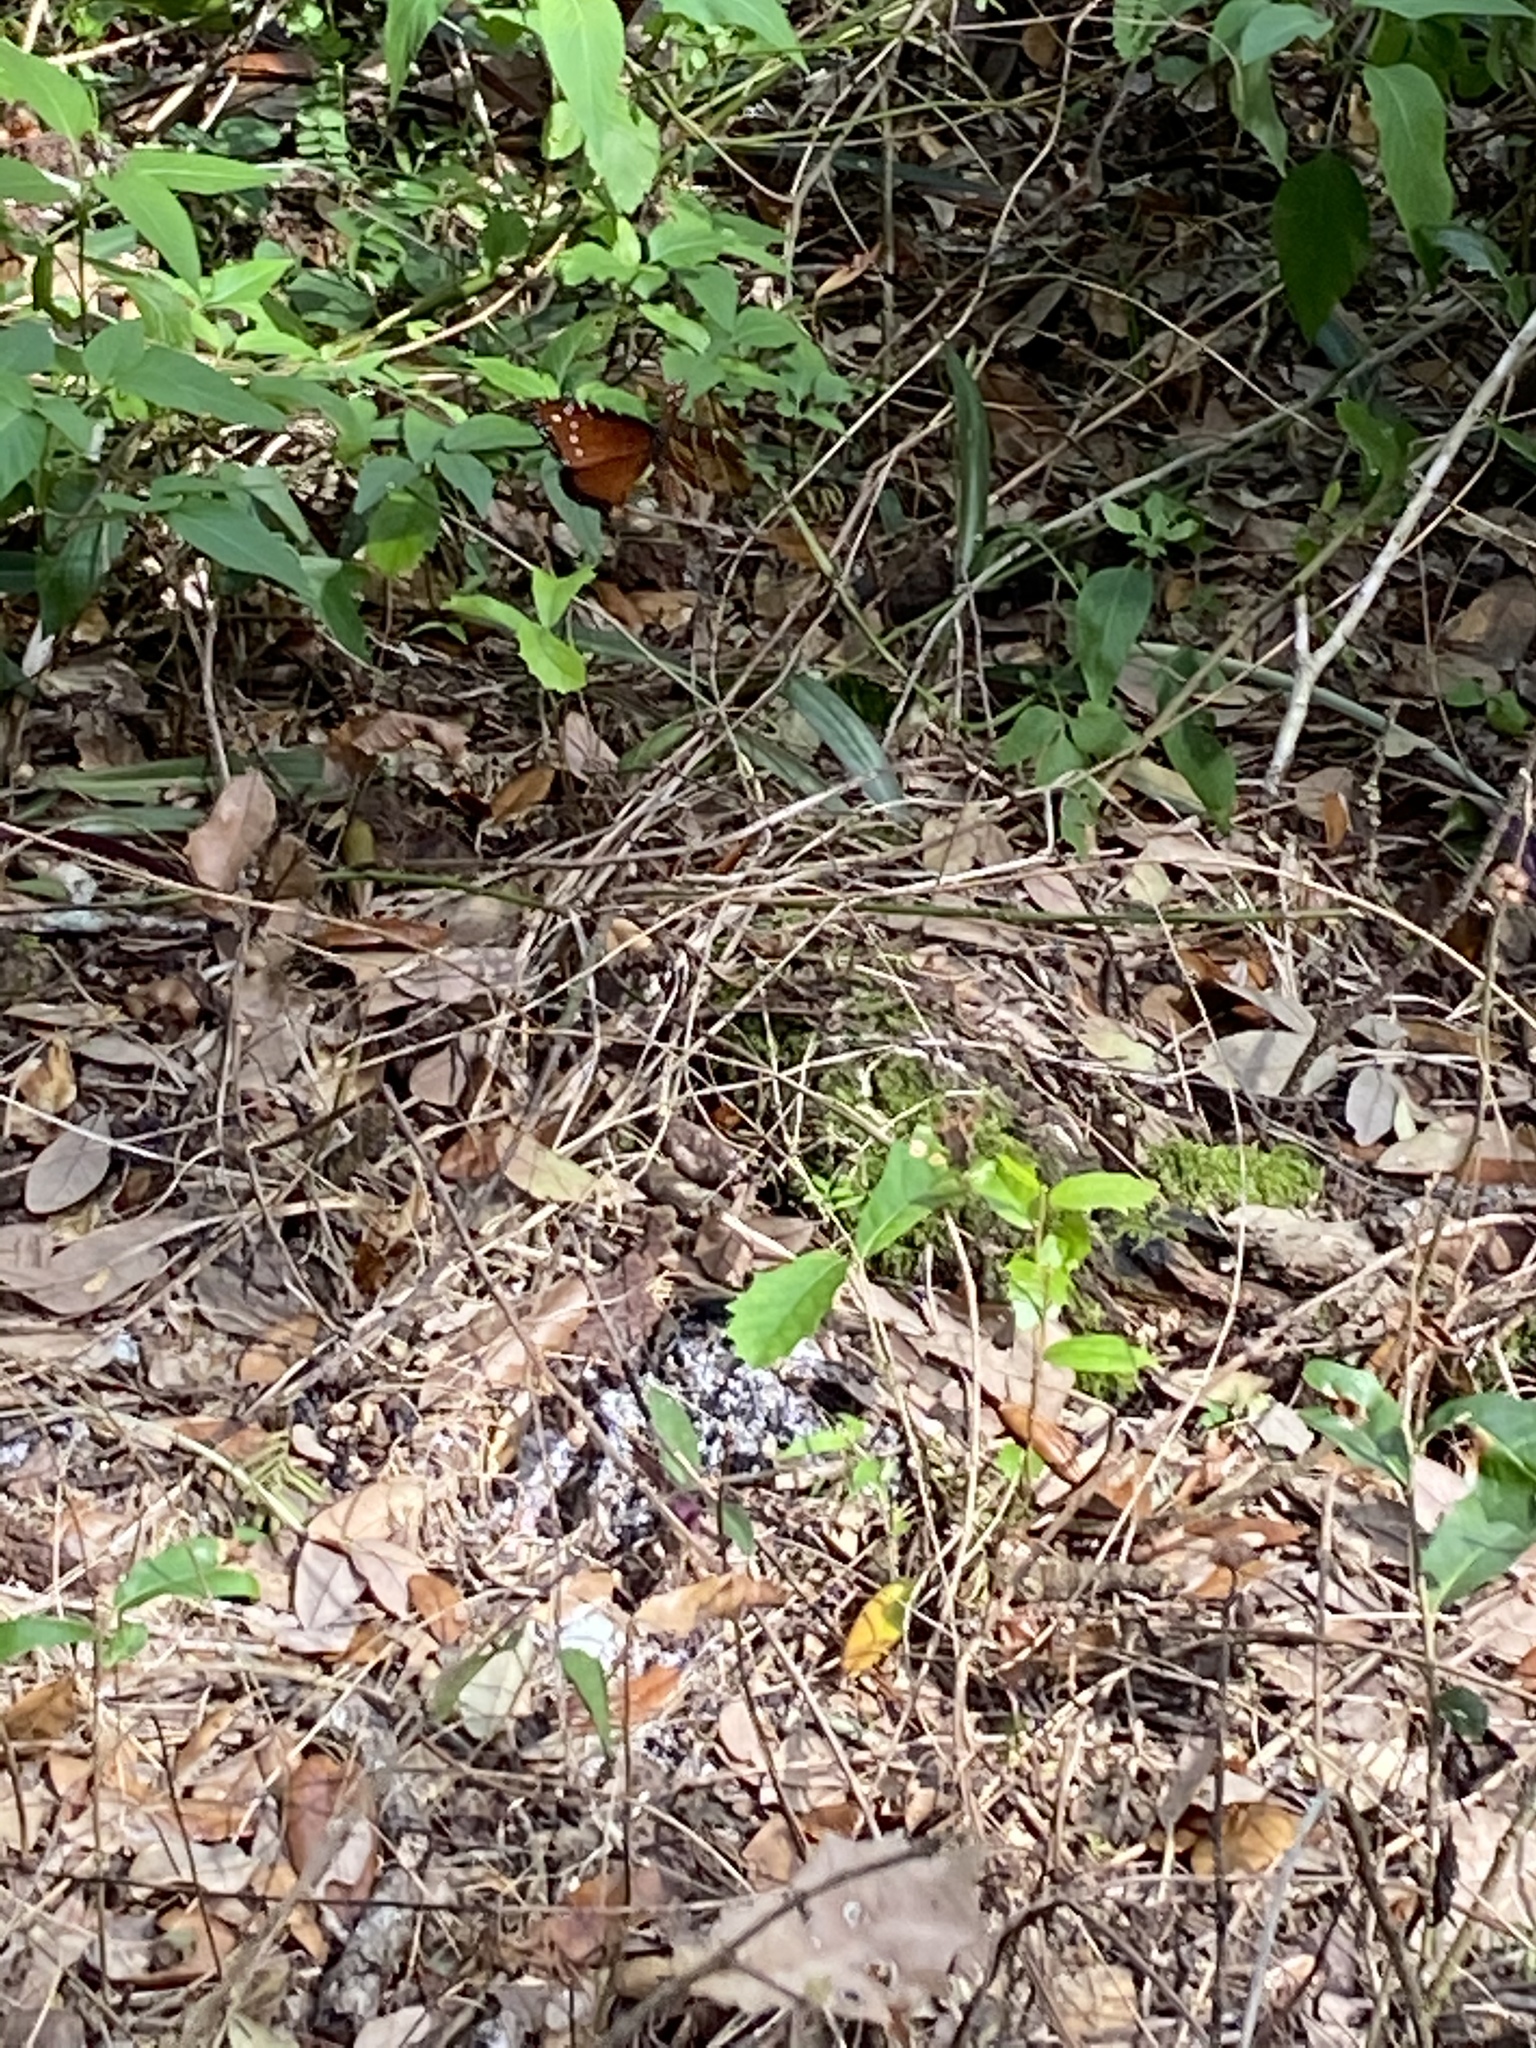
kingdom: Animalia
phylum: Arthropoda
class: Insecta
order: Lepidoptera
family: Nymphalidae
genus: Danaus
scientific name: Danaus gilippus
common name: Queen
